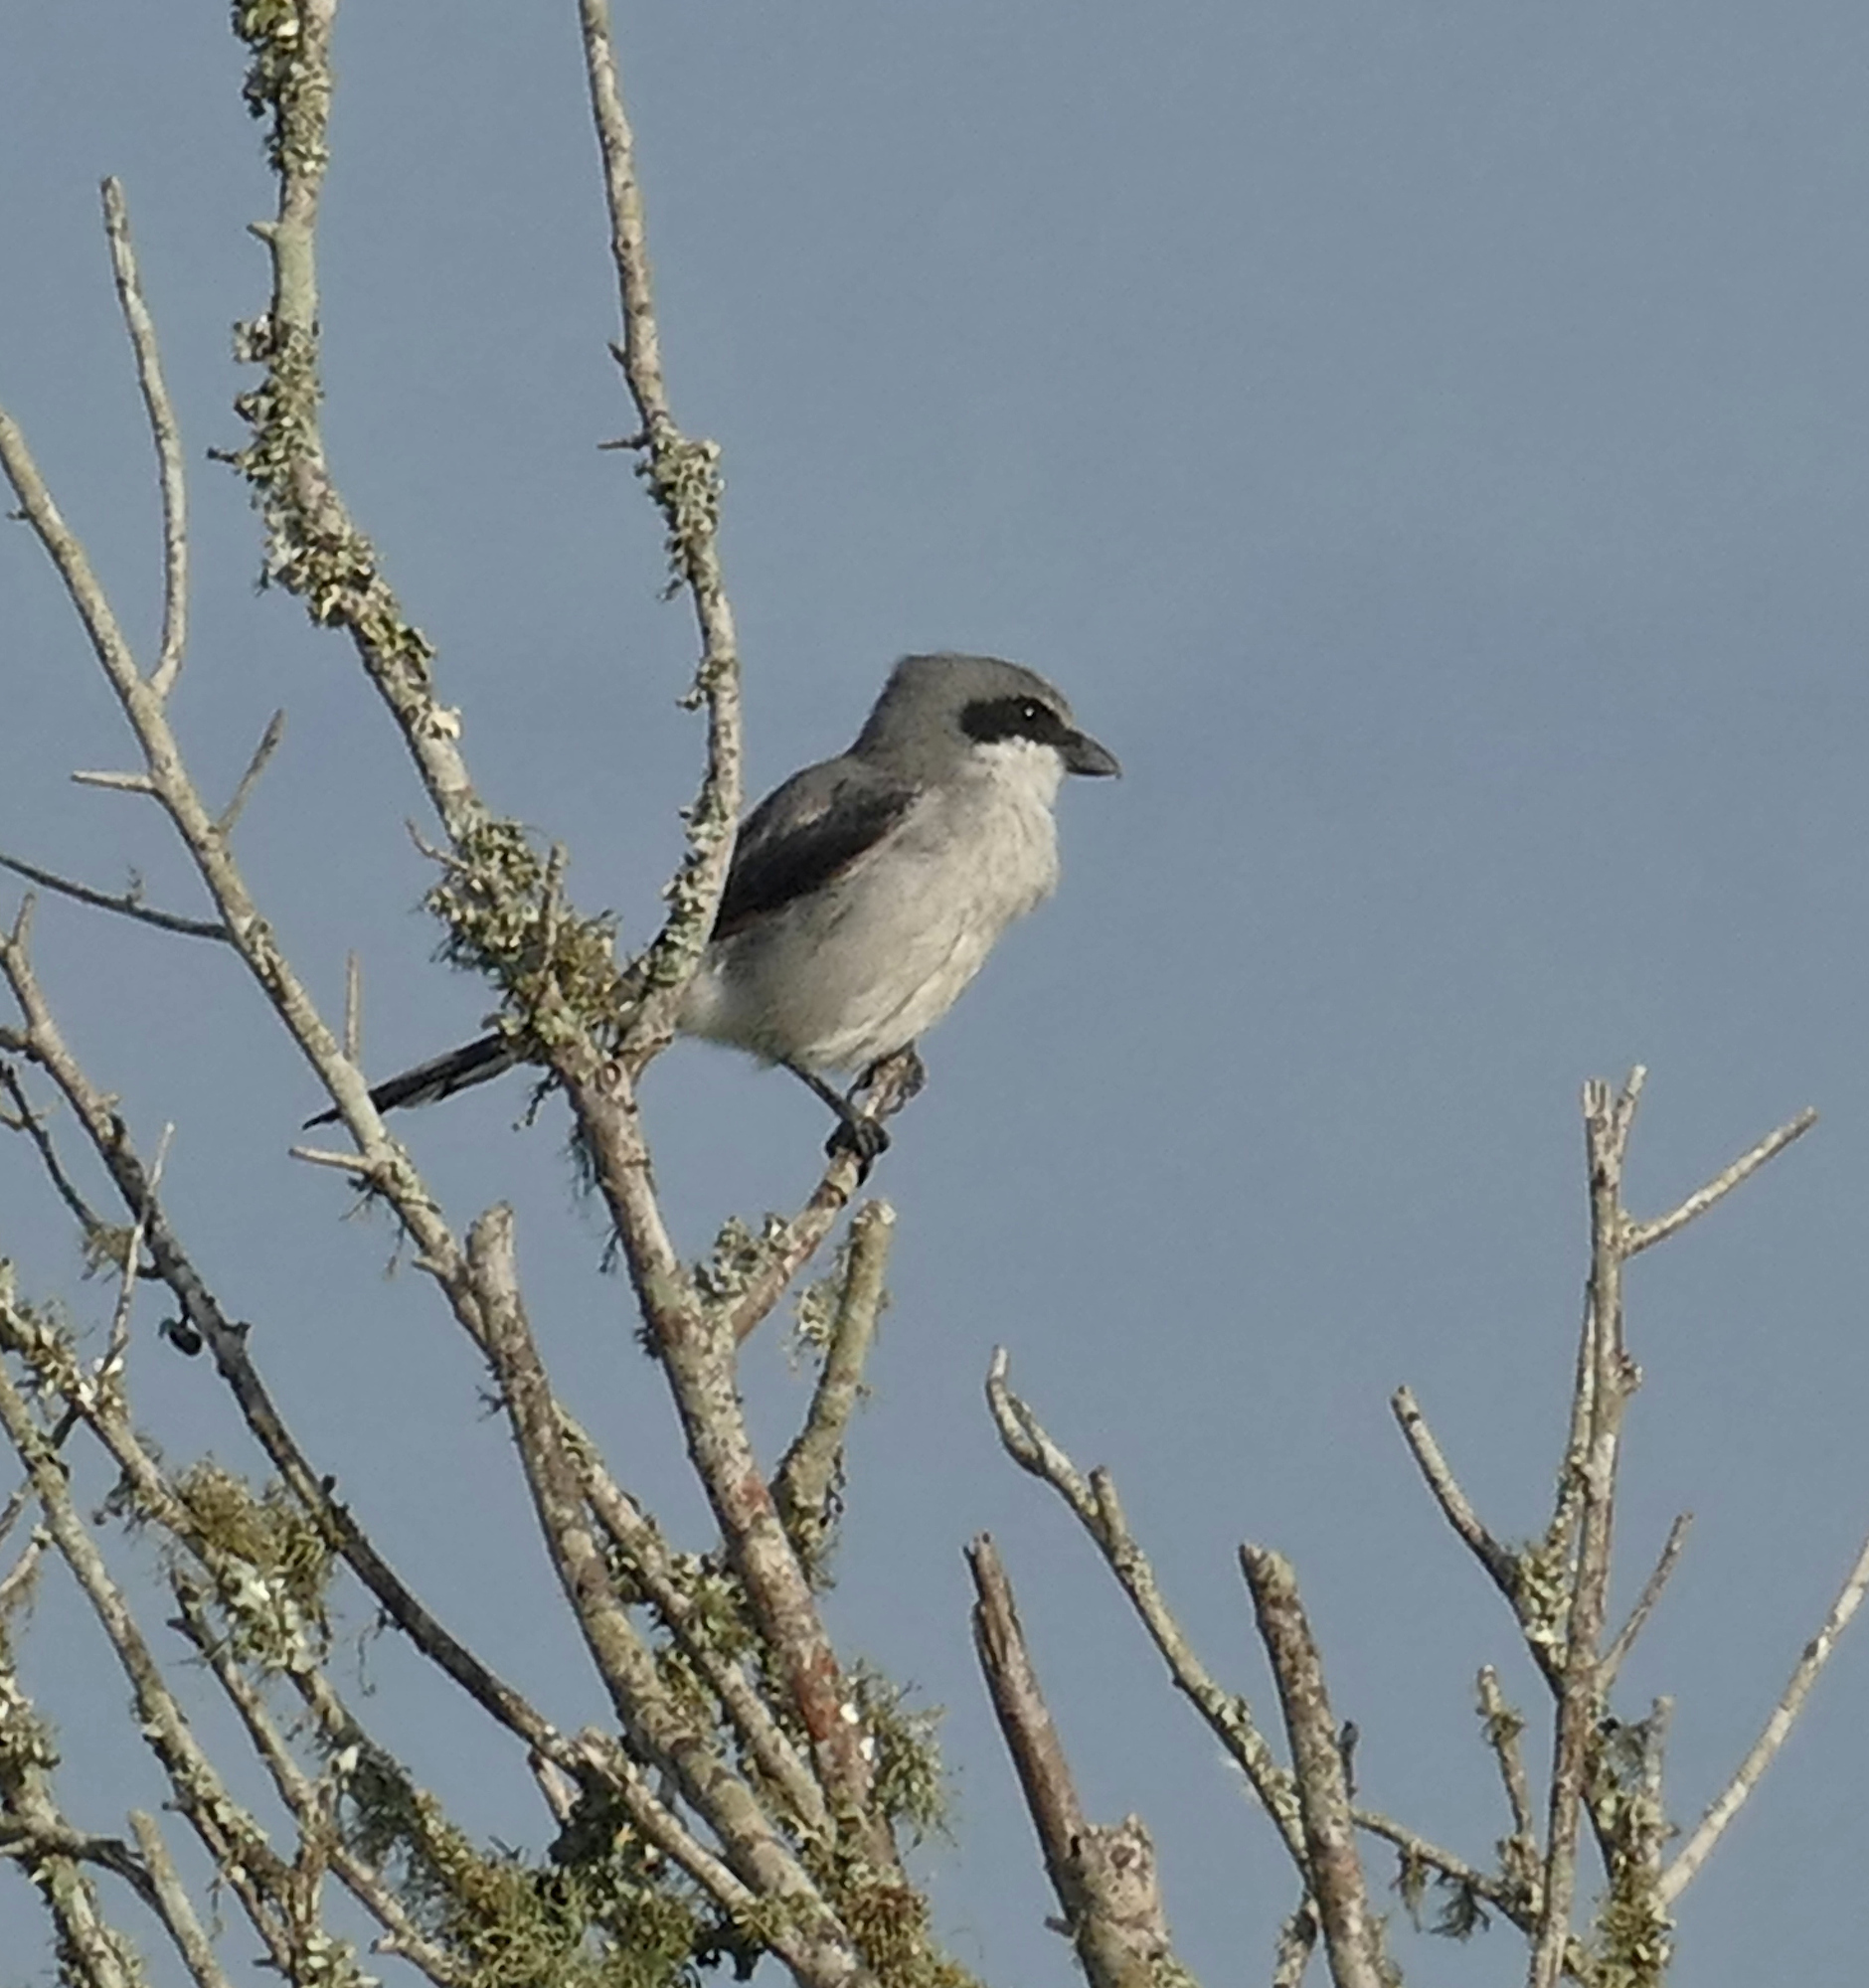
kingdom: Animalia
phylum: Chordata
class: Aves
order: Passeriformes
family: Laniidae
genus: Lanius
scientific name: Lanius ludovicianus
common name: Loggerhead shrike
